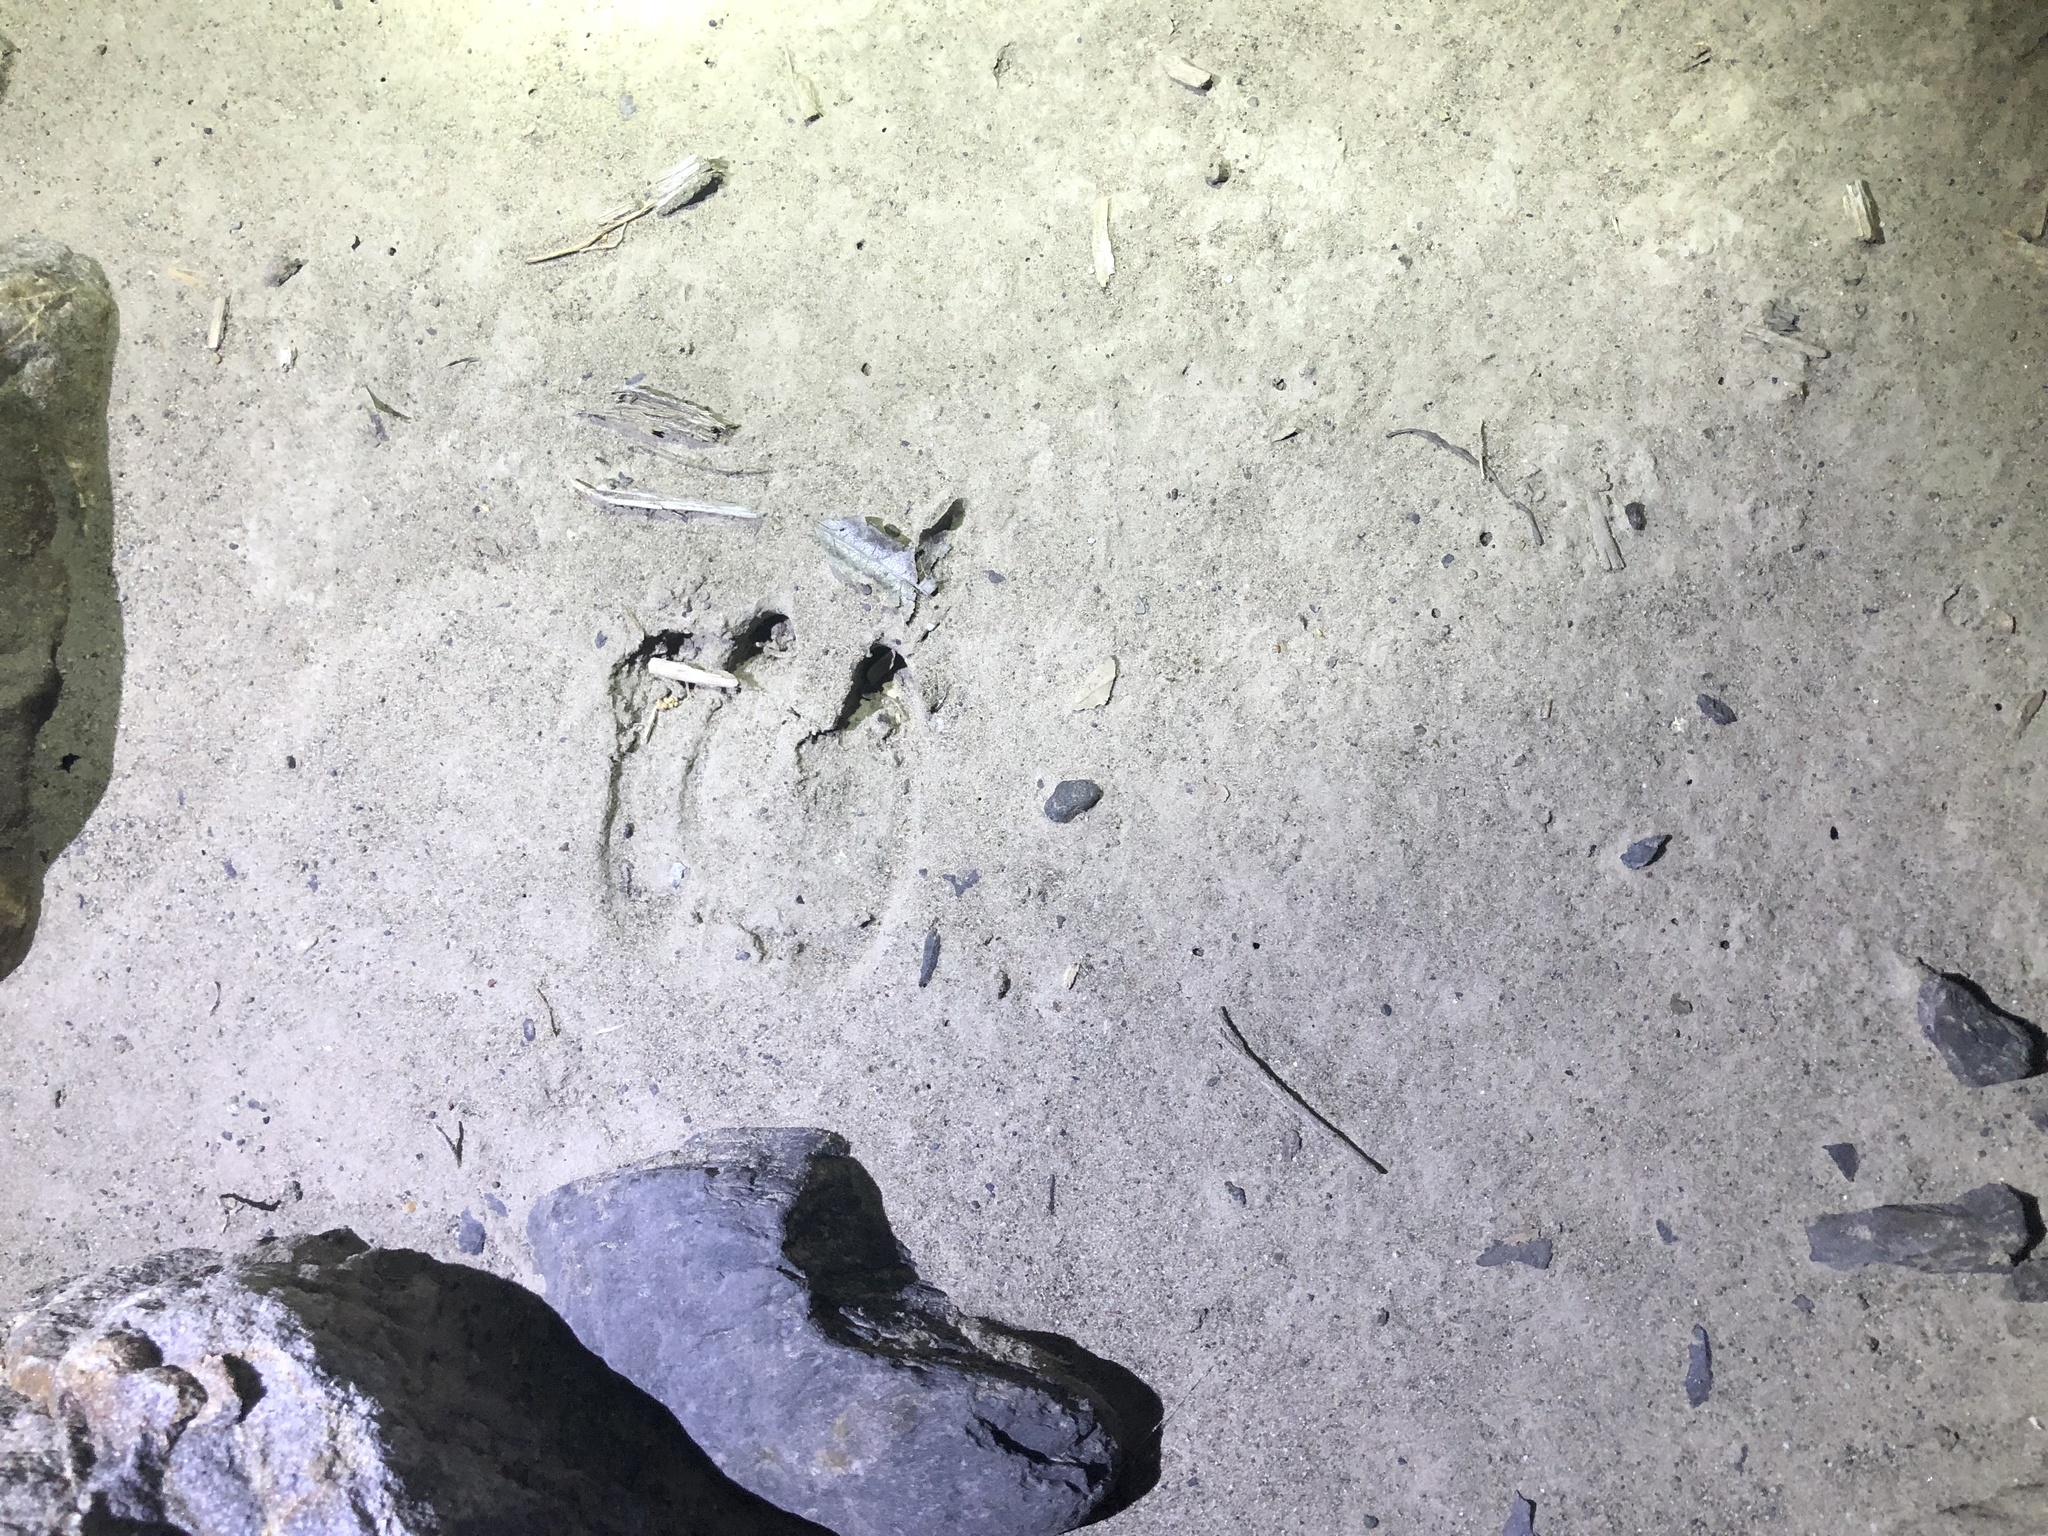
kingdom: Animalia
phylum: Chordata
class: Mammalia
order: Artiodactyla
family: Bovidae
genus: Capricornis
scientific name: Capricornis swinhoei
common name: Formosan serow
